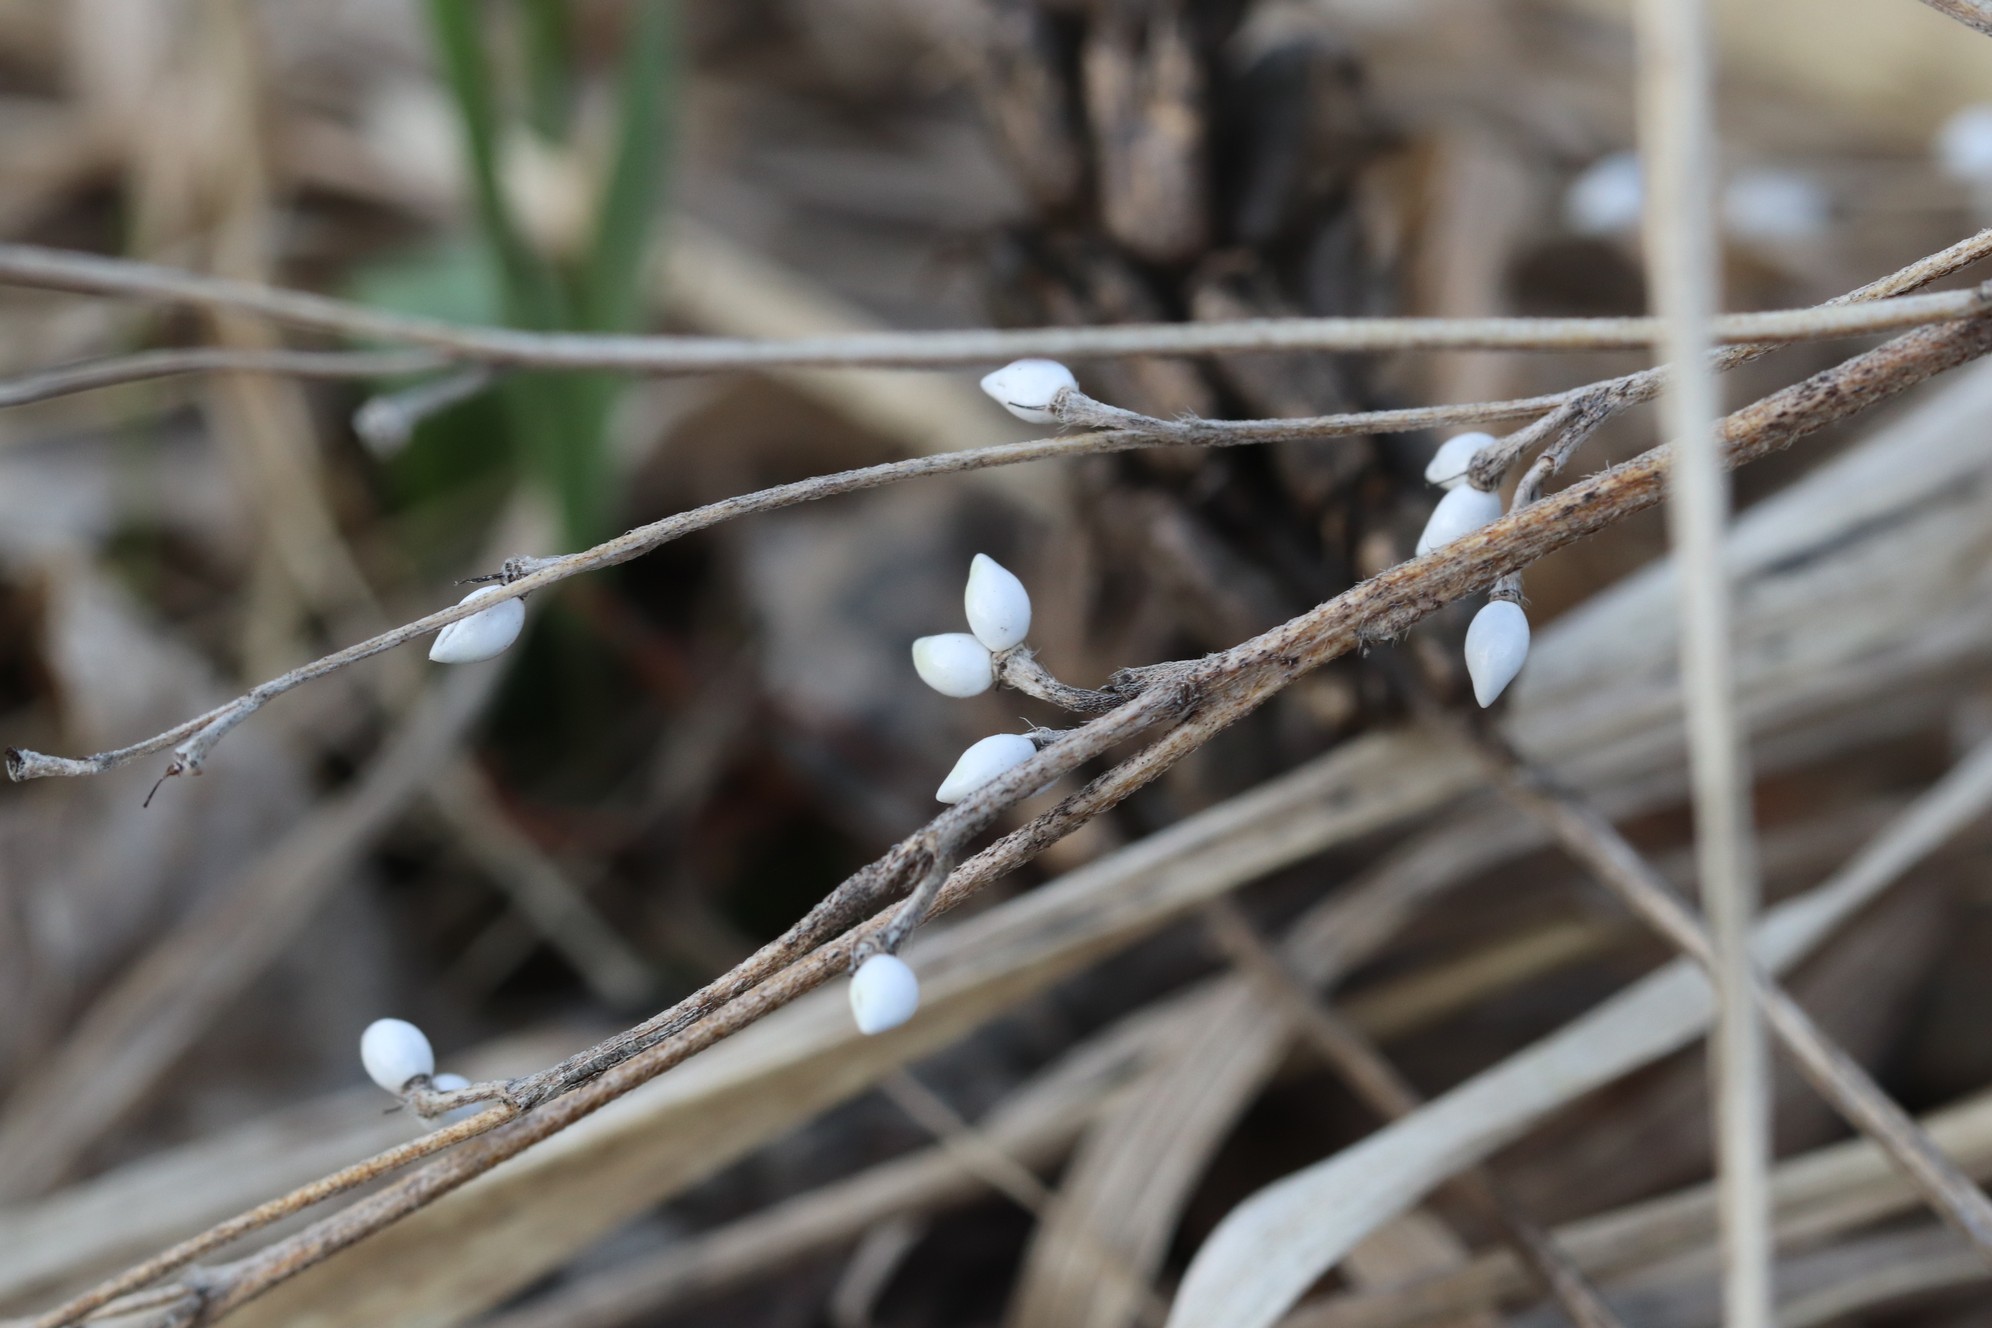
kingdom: Plantae
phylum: Tracheophyta
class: Magnoliopsida
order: Boraginales
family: Boraginaceae
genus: Lithospermum
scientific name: Lithospermum officinale
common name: Common gromwell
